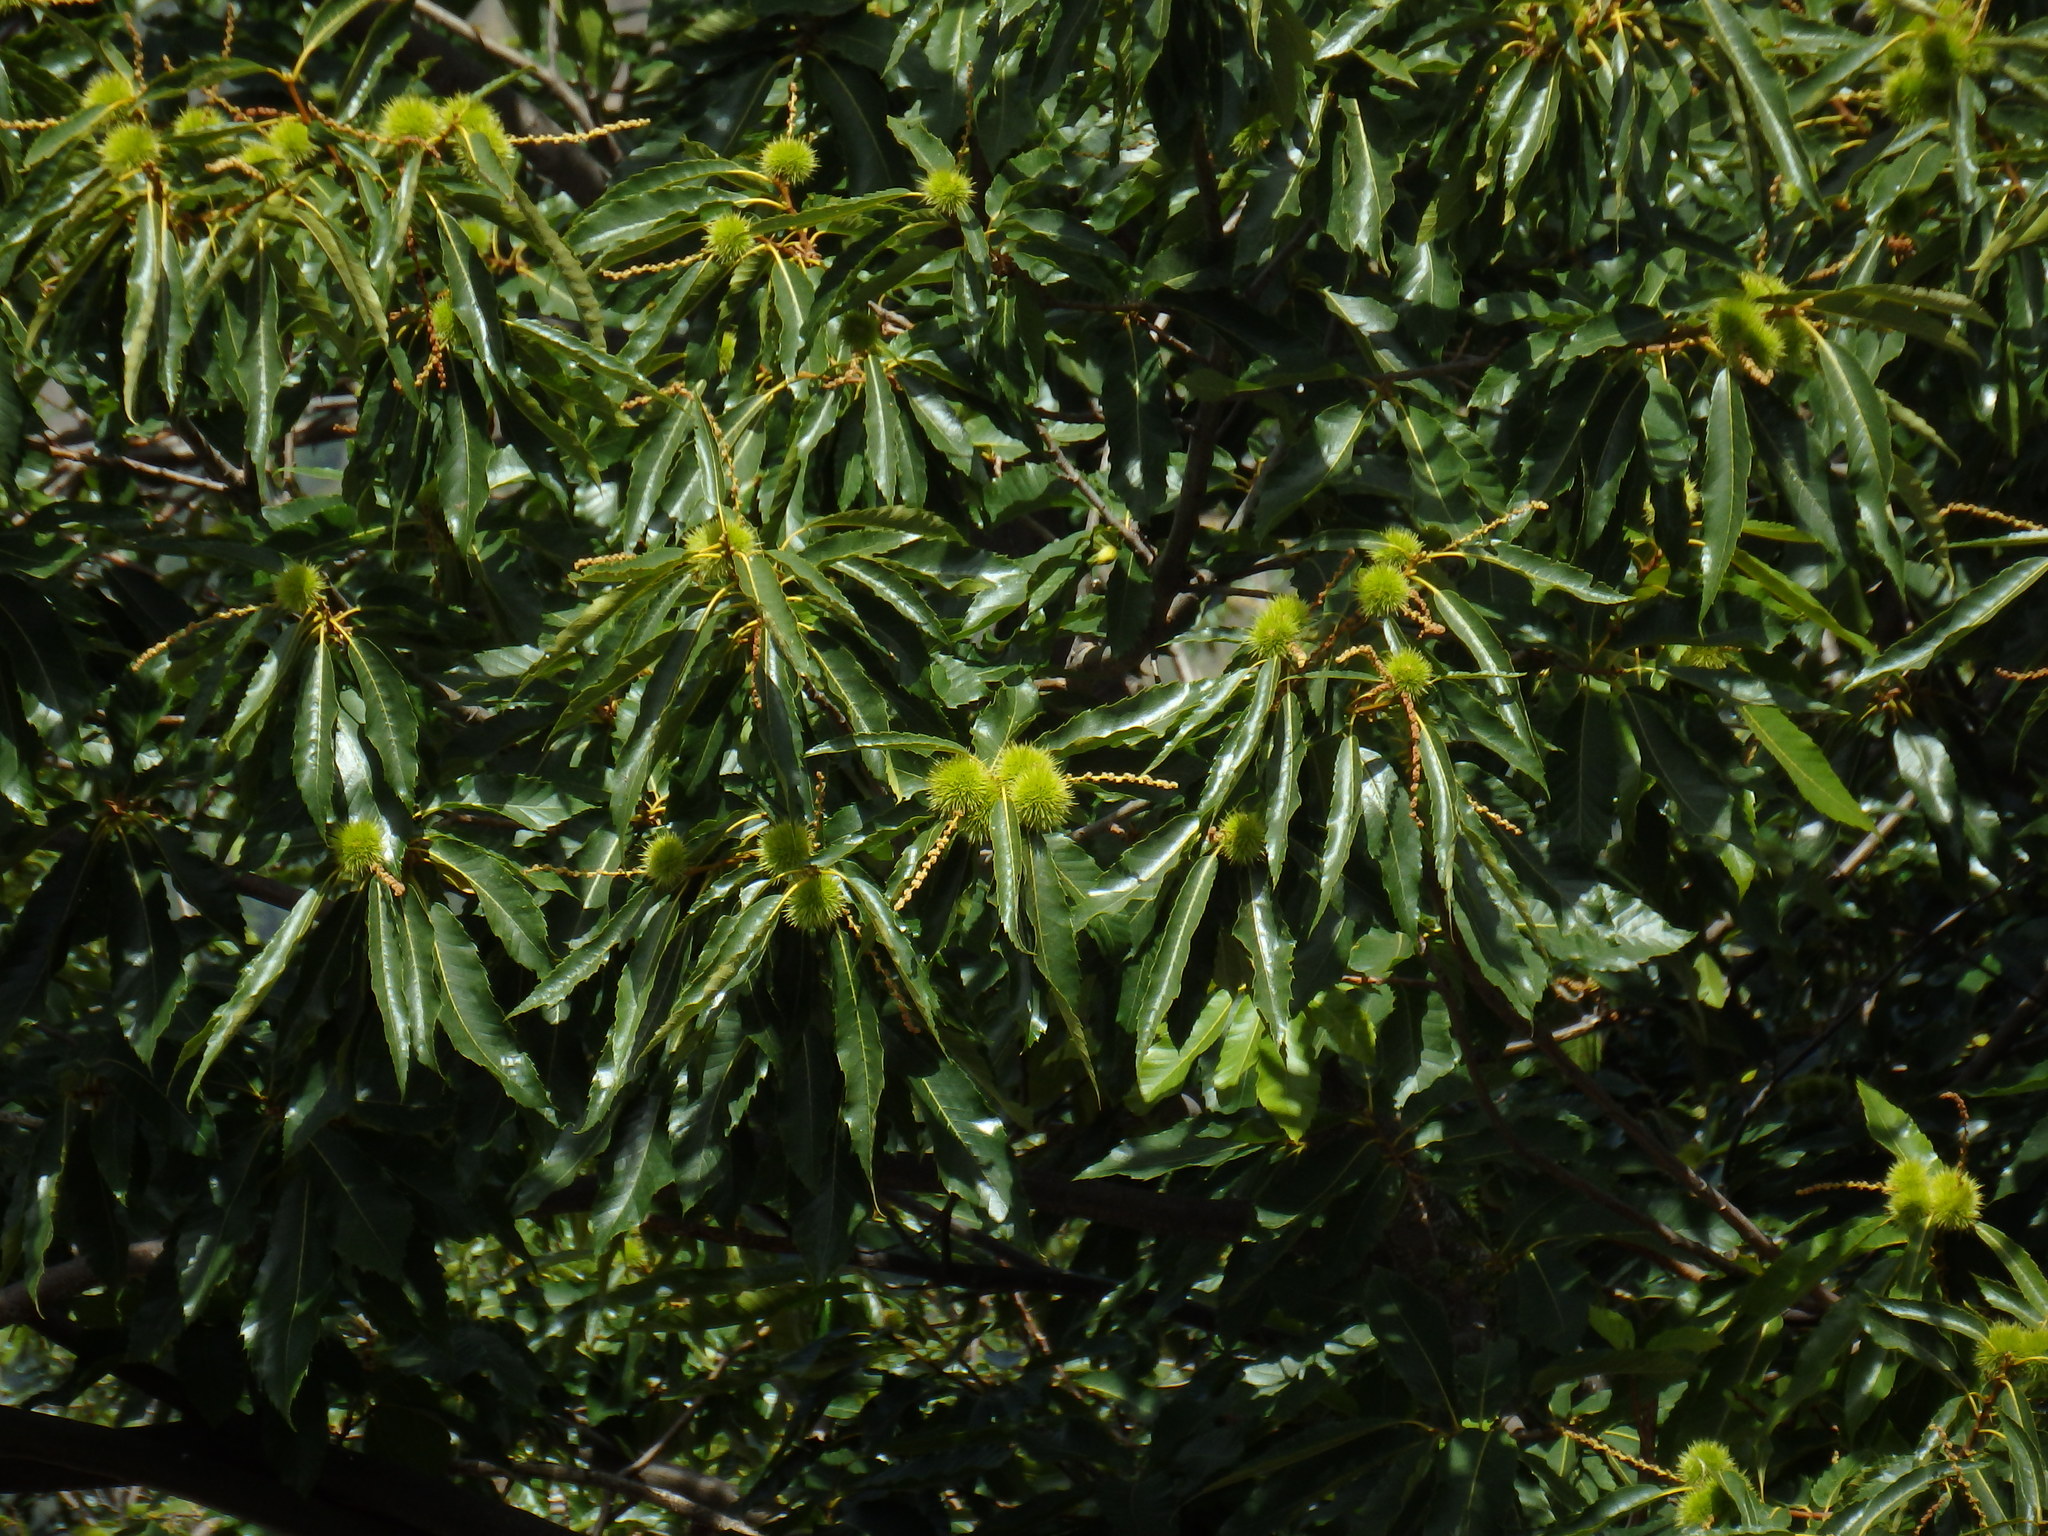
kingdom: Plantae
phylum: Tracheophyta
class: Magnoliopsida
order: Fagales
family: Fagaceae
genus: Castanea
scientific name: Castanea sativa
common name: Sweet chestnut
